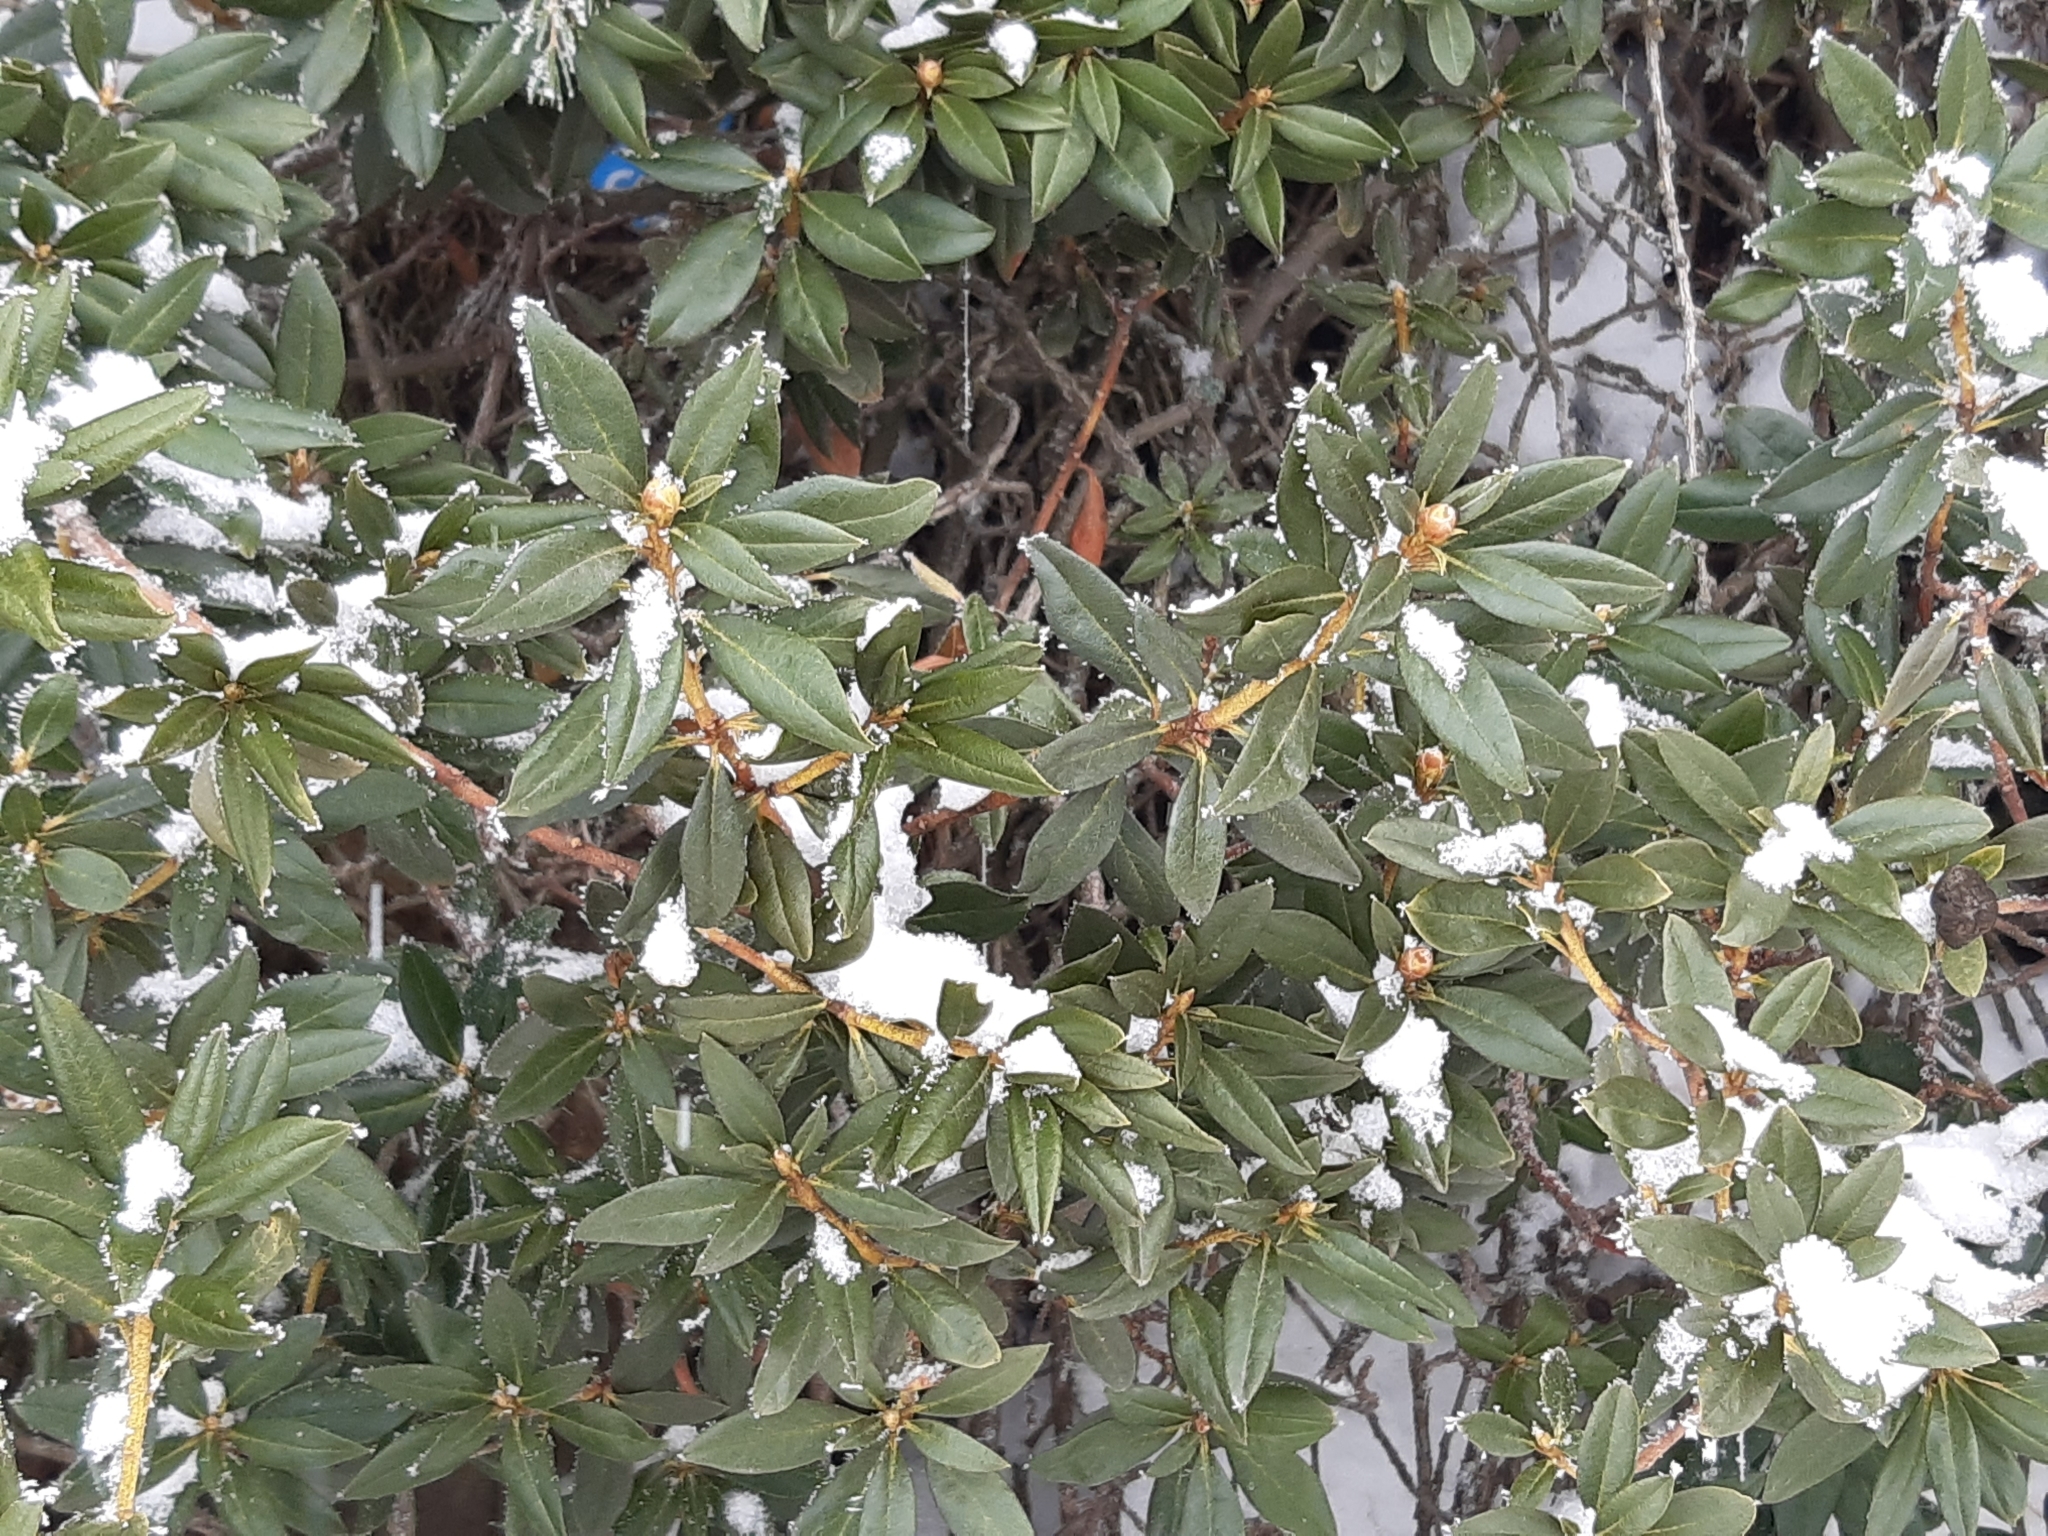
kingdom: Plantae
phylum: Tracheophyta
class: Magnoliopsida
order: Ericales
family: Ericaceae
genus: Rhododendron
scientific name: Rhododendron ferrugineum
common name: Alpenrose
